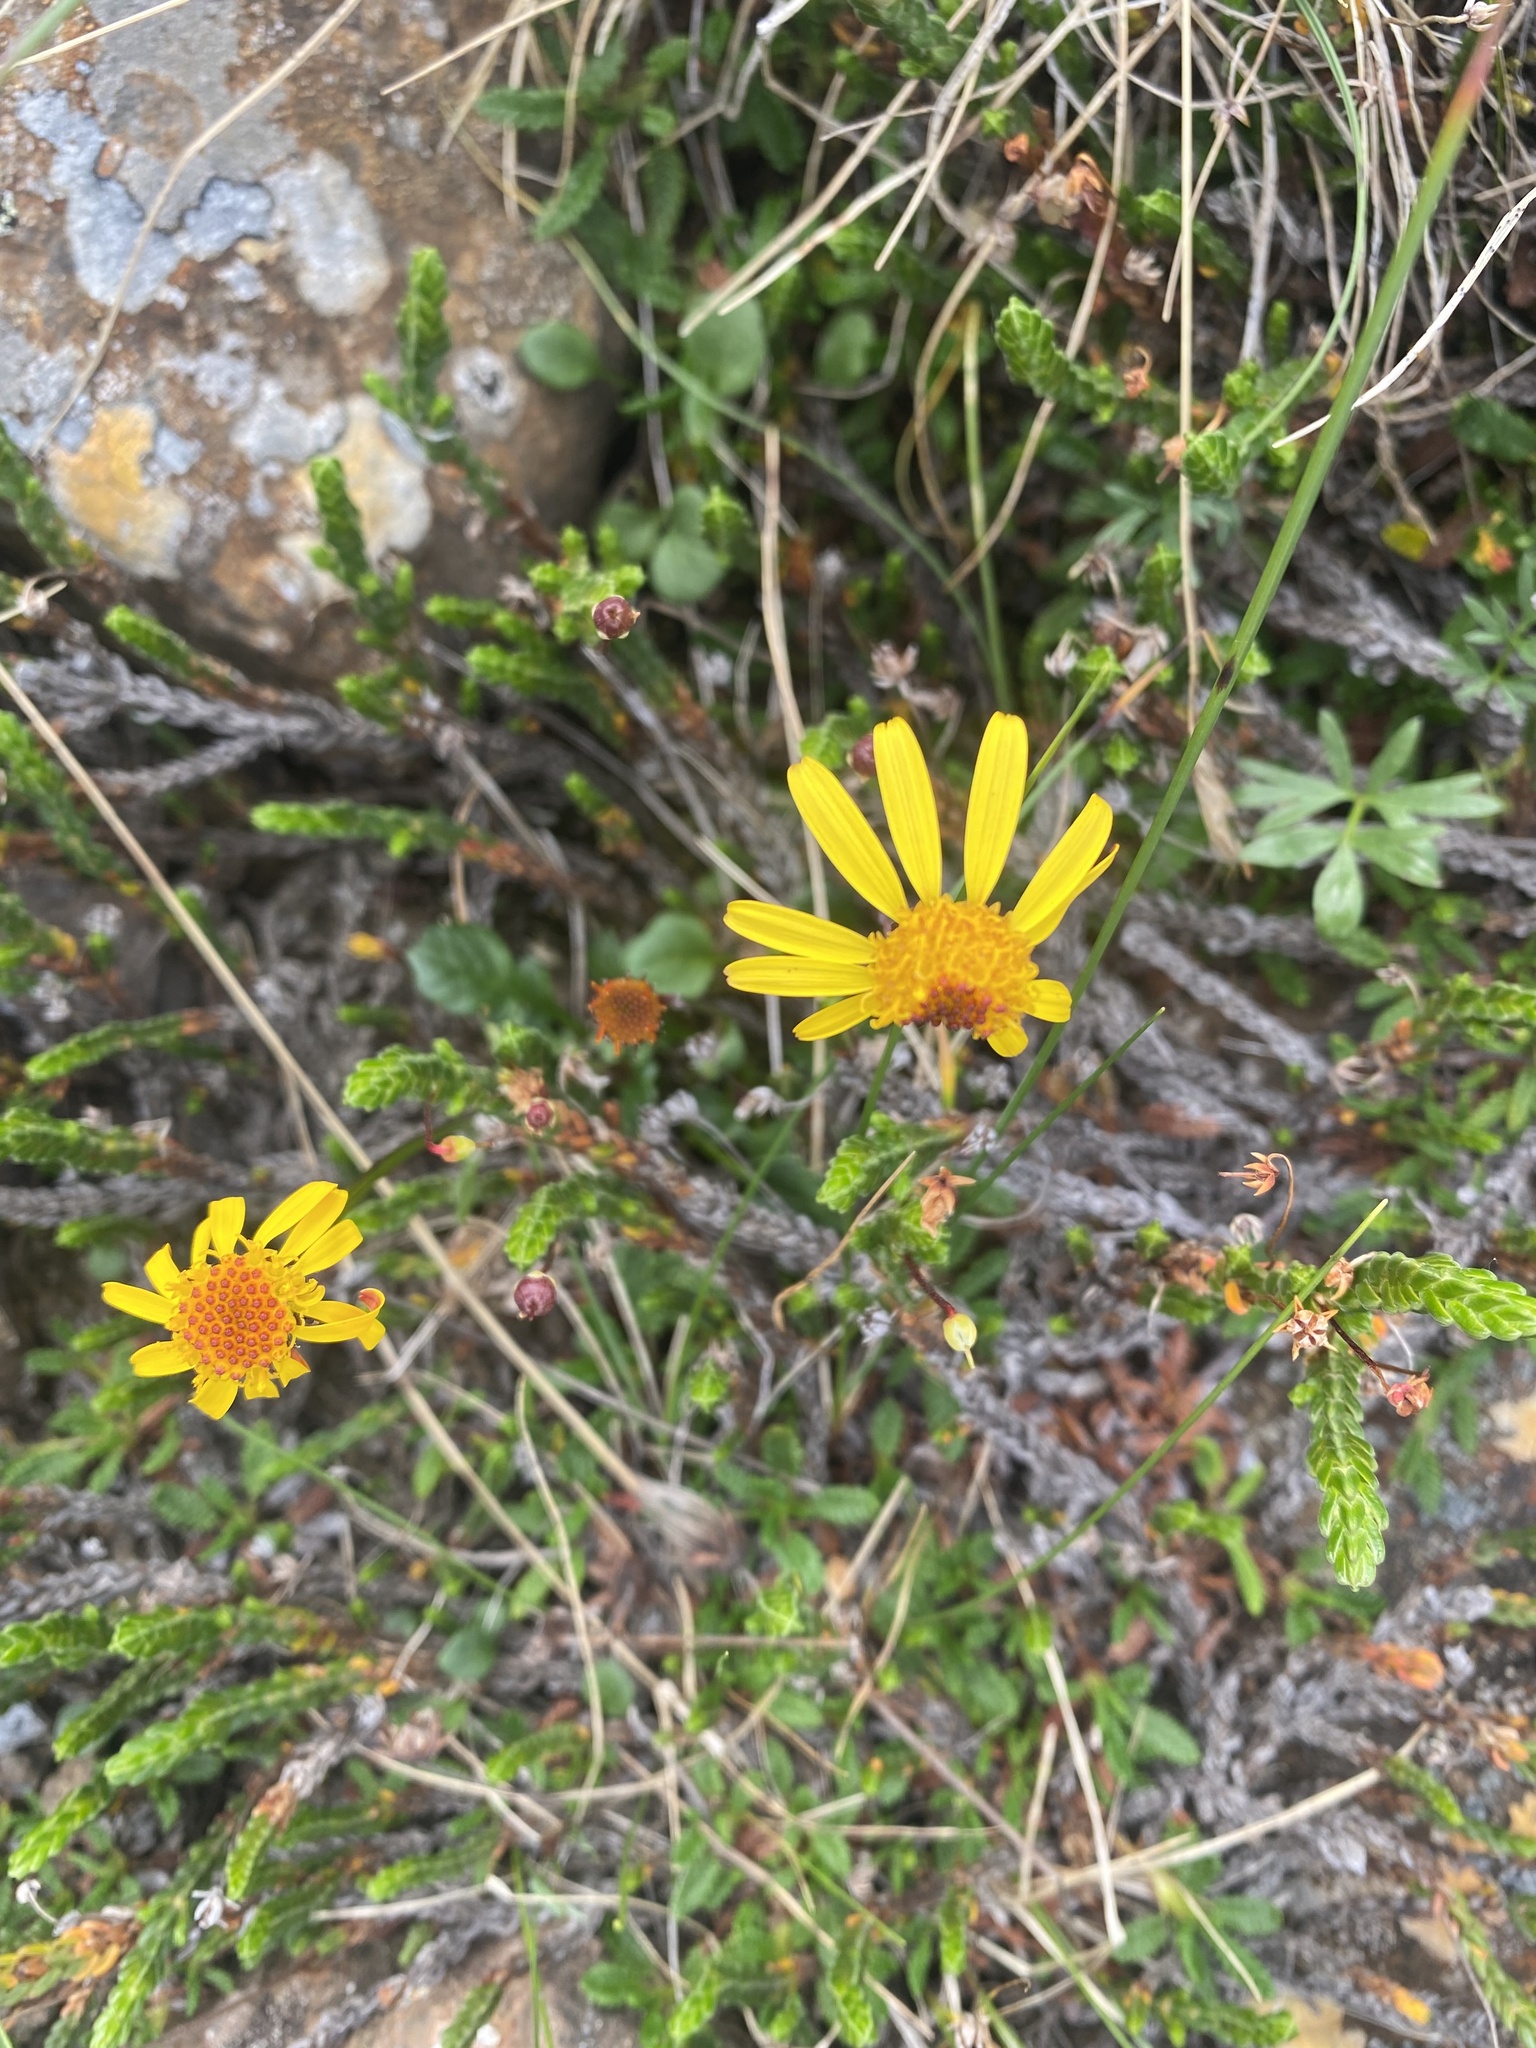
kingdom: Plantae
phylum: Tracheophyta
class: Magnoliopsida
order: Asterales
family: Asteraceae
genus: Packera
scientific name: Packera heterophylla
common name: Arctic butterweed
